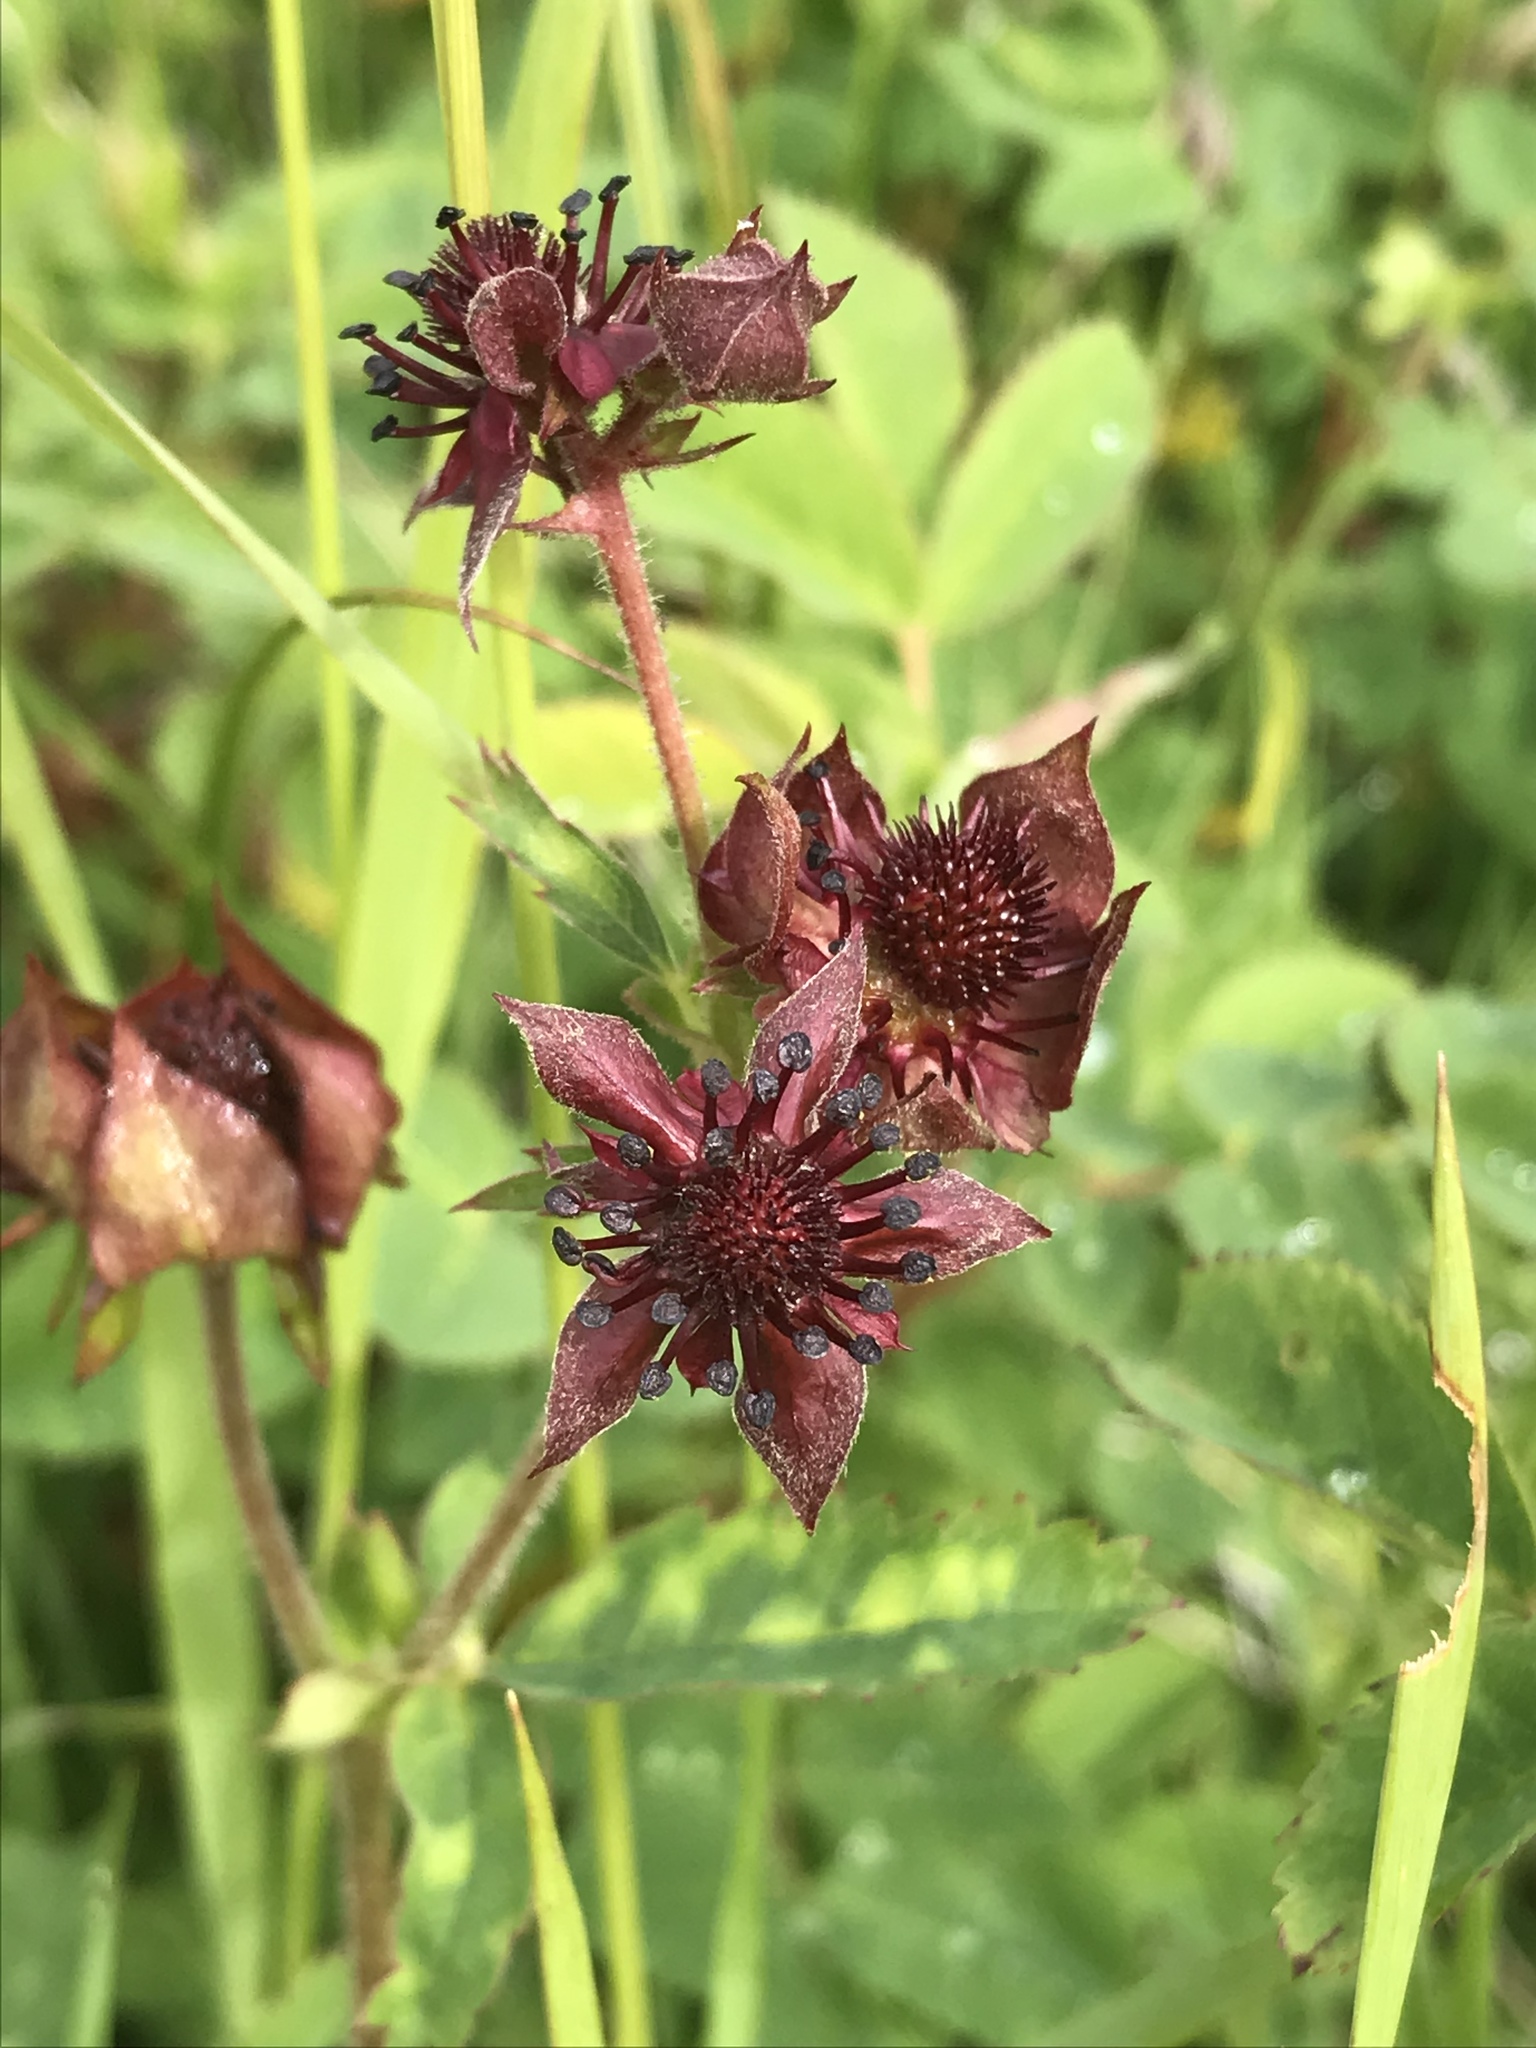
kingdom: Plantae
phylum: Tracheophyta
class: Magnoliopsida
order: Rosales
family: Rosaceae
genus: Comarum
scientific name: Comarum palustre
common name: Marsh cinquefoil
